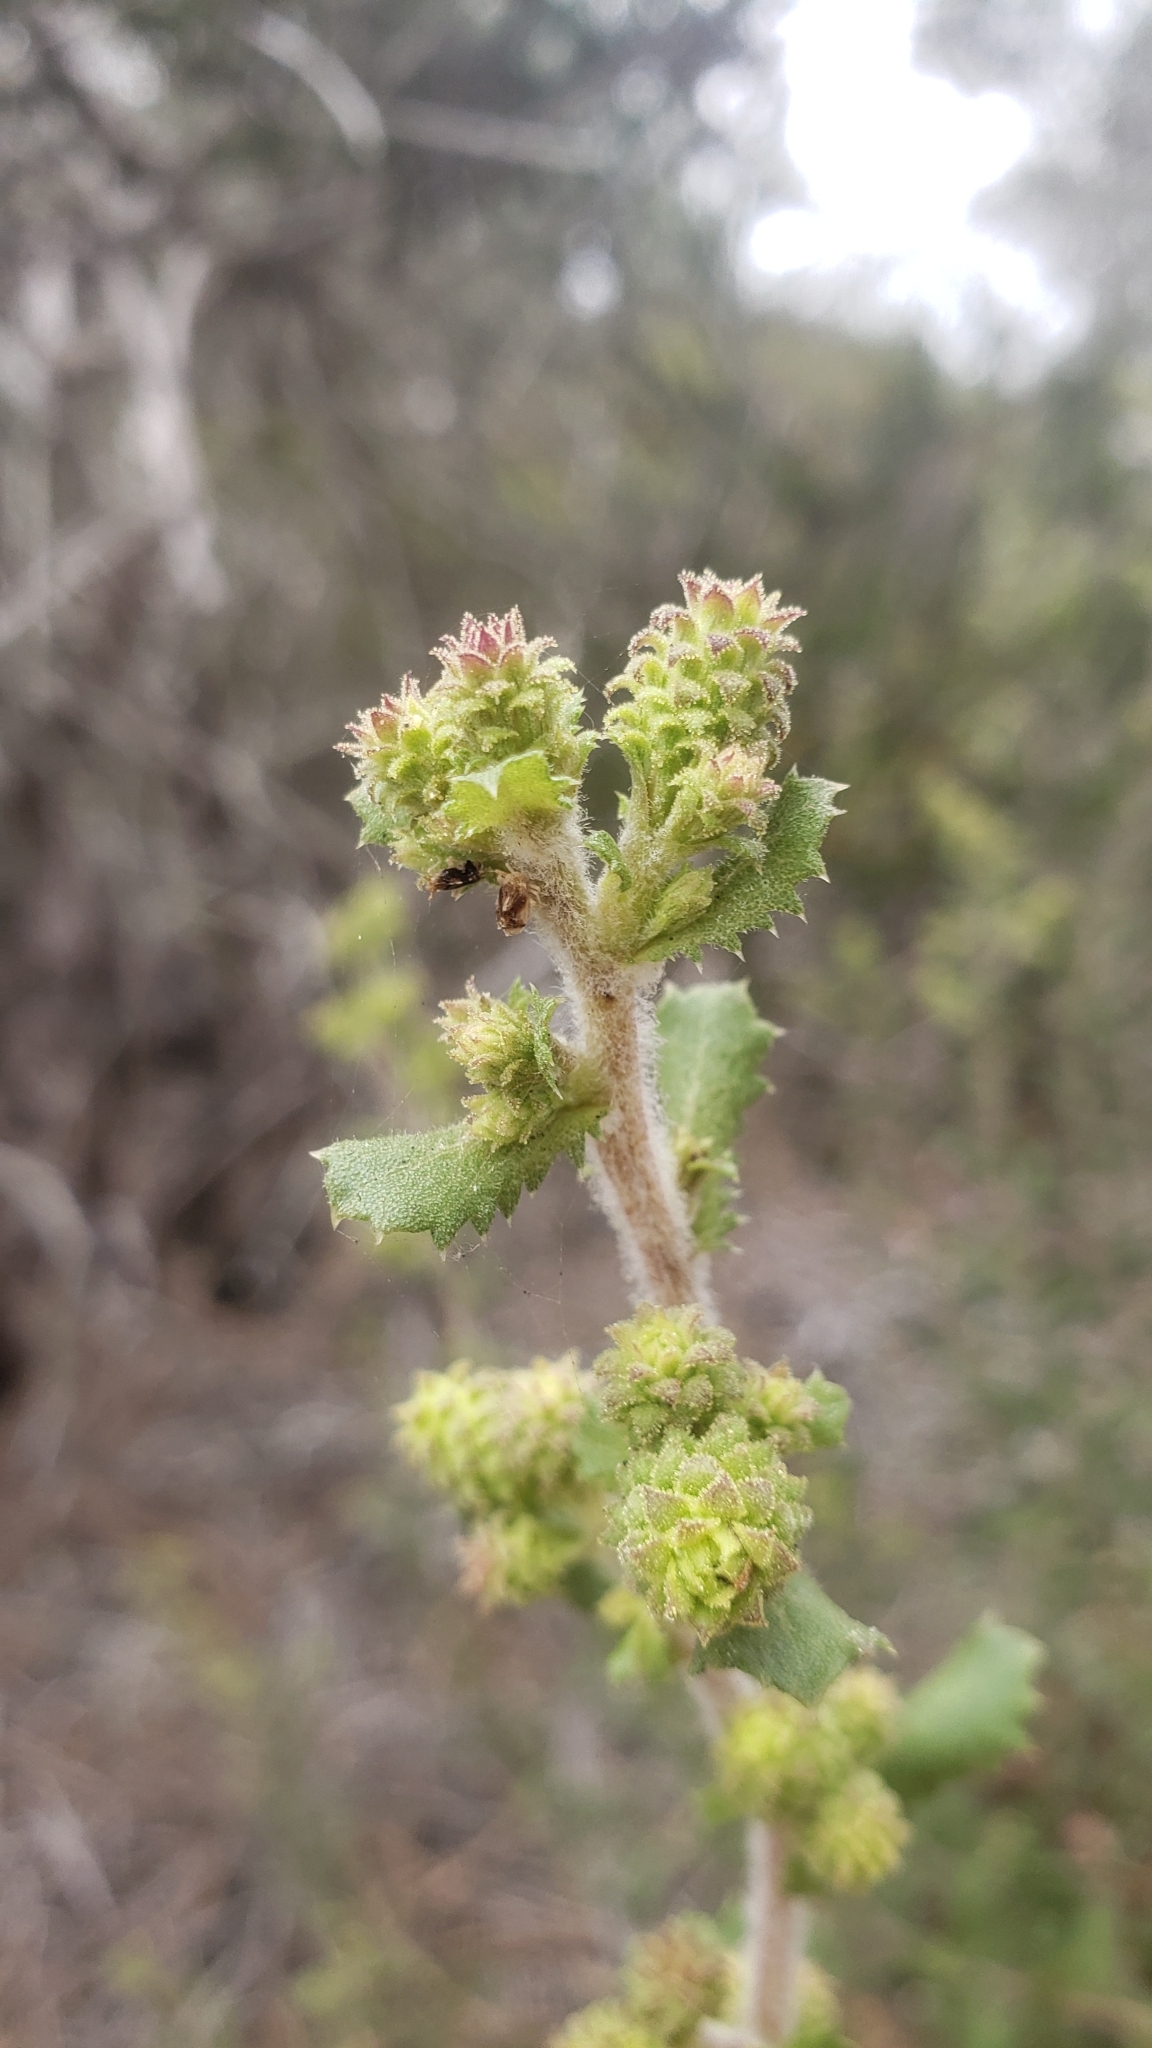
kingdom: Plantae
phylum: Tracheophyta
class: Magnoliopsida
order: Asterales
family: Asteraceae
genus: Hazardia
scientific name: Hazardia squarrosa
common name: Saw-tooth goldenbush
